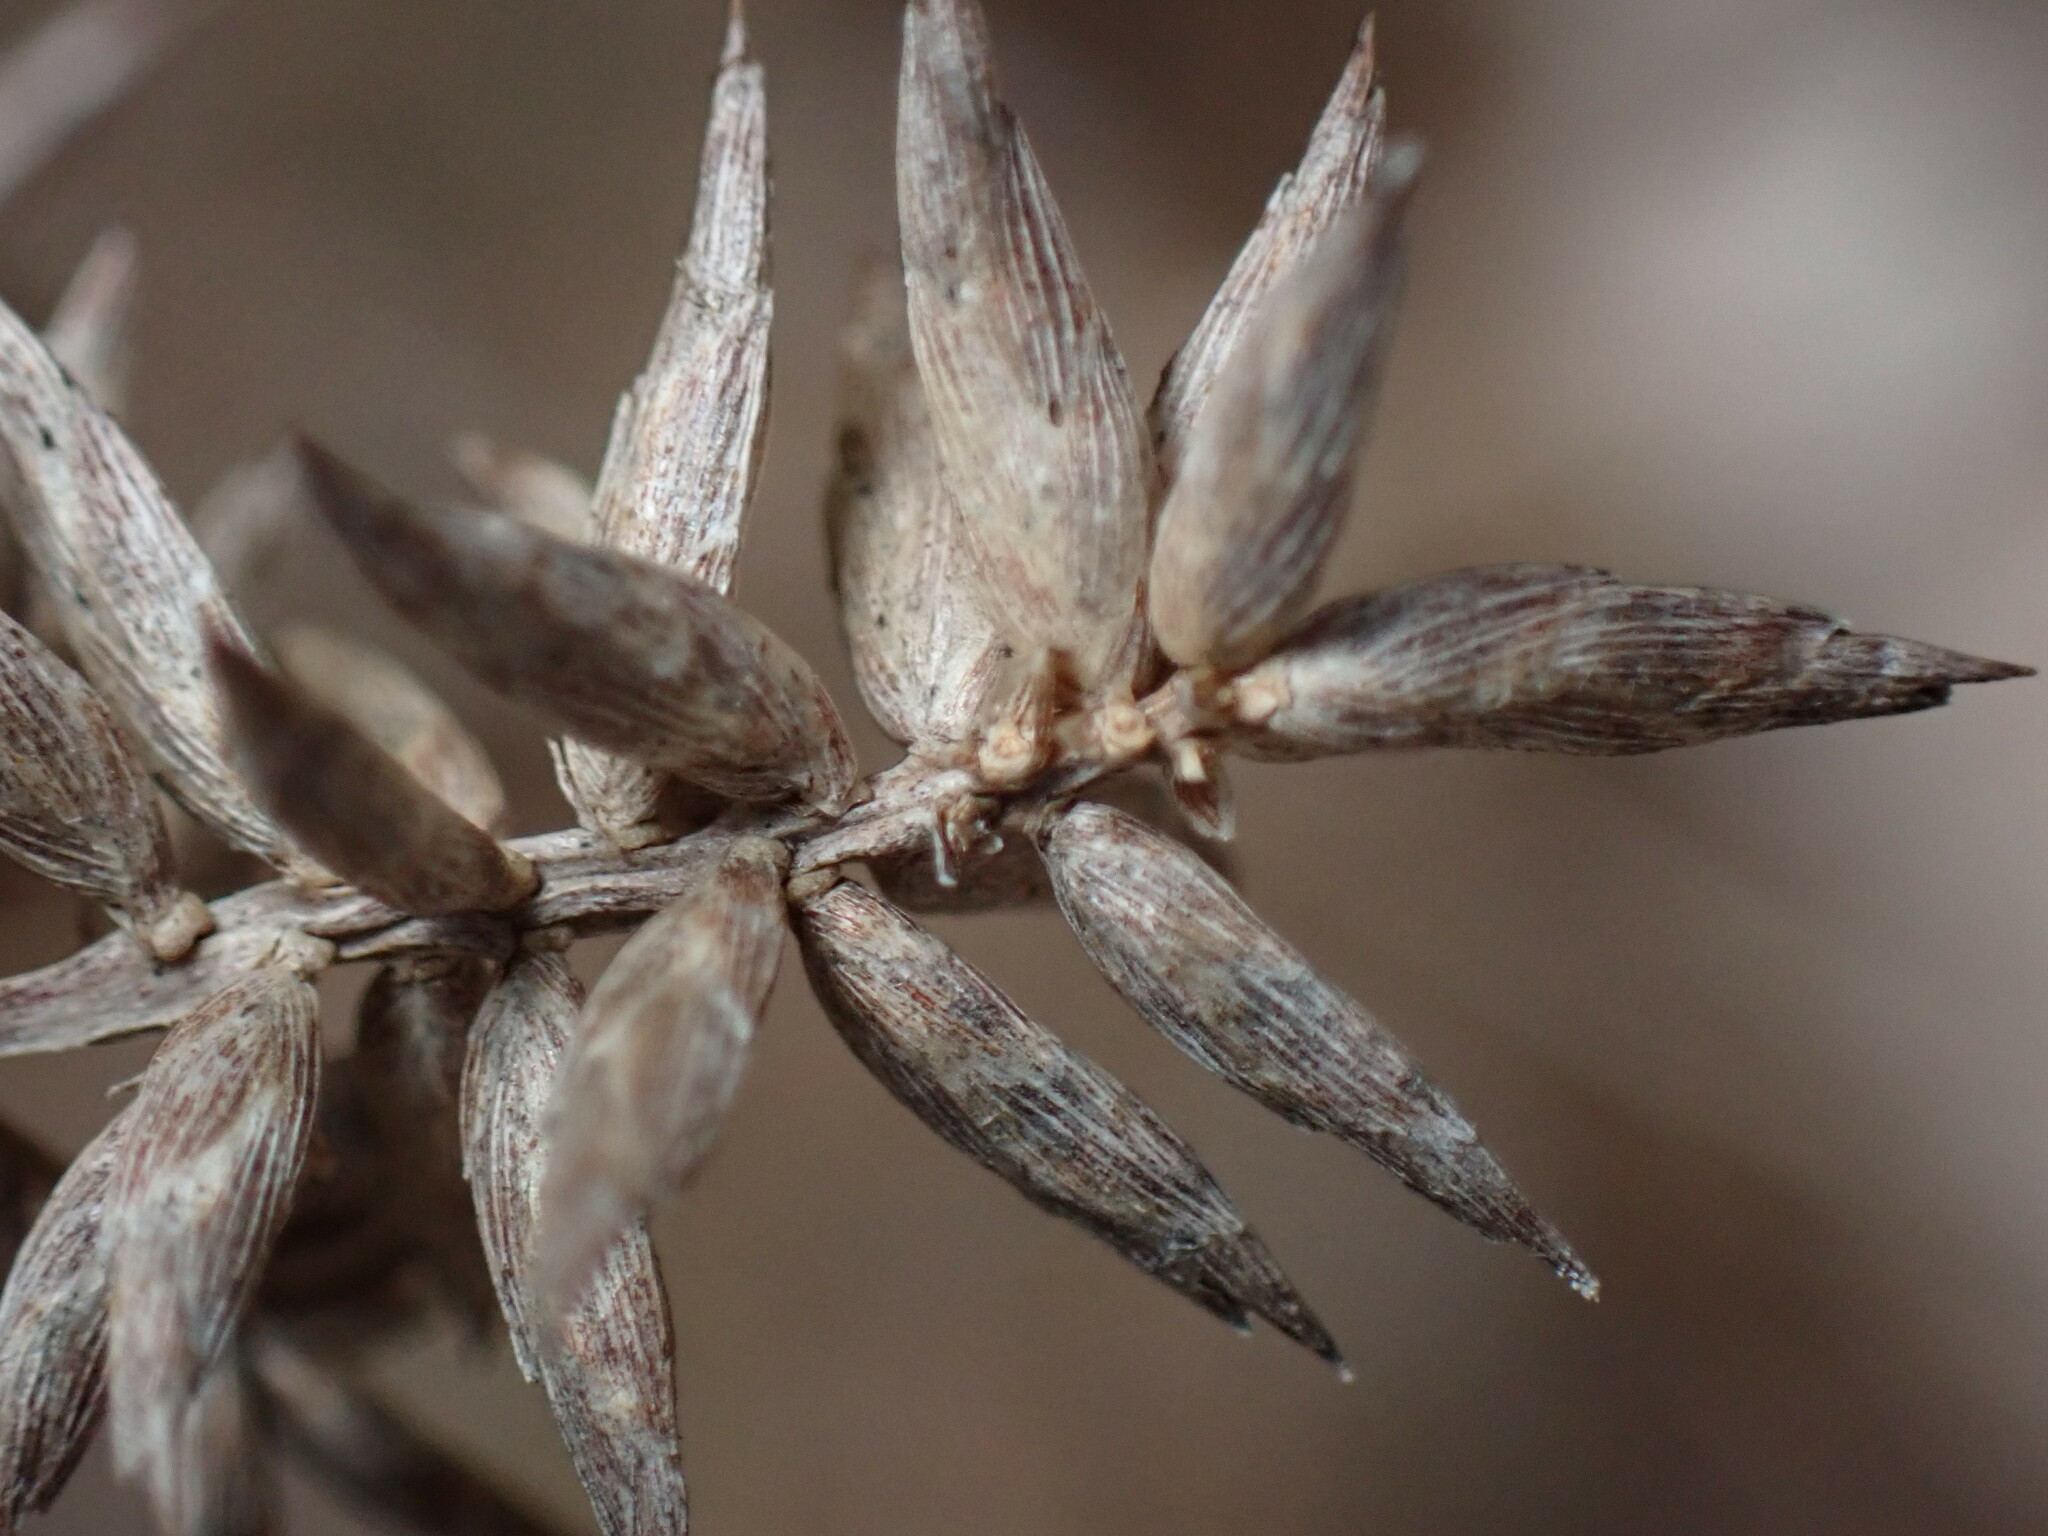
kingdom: Plantae
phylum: Tracheophyta
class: Liliopsida
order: Poales
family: Cyperaceae
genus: Cyperus
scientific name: Cyperus javanicus
